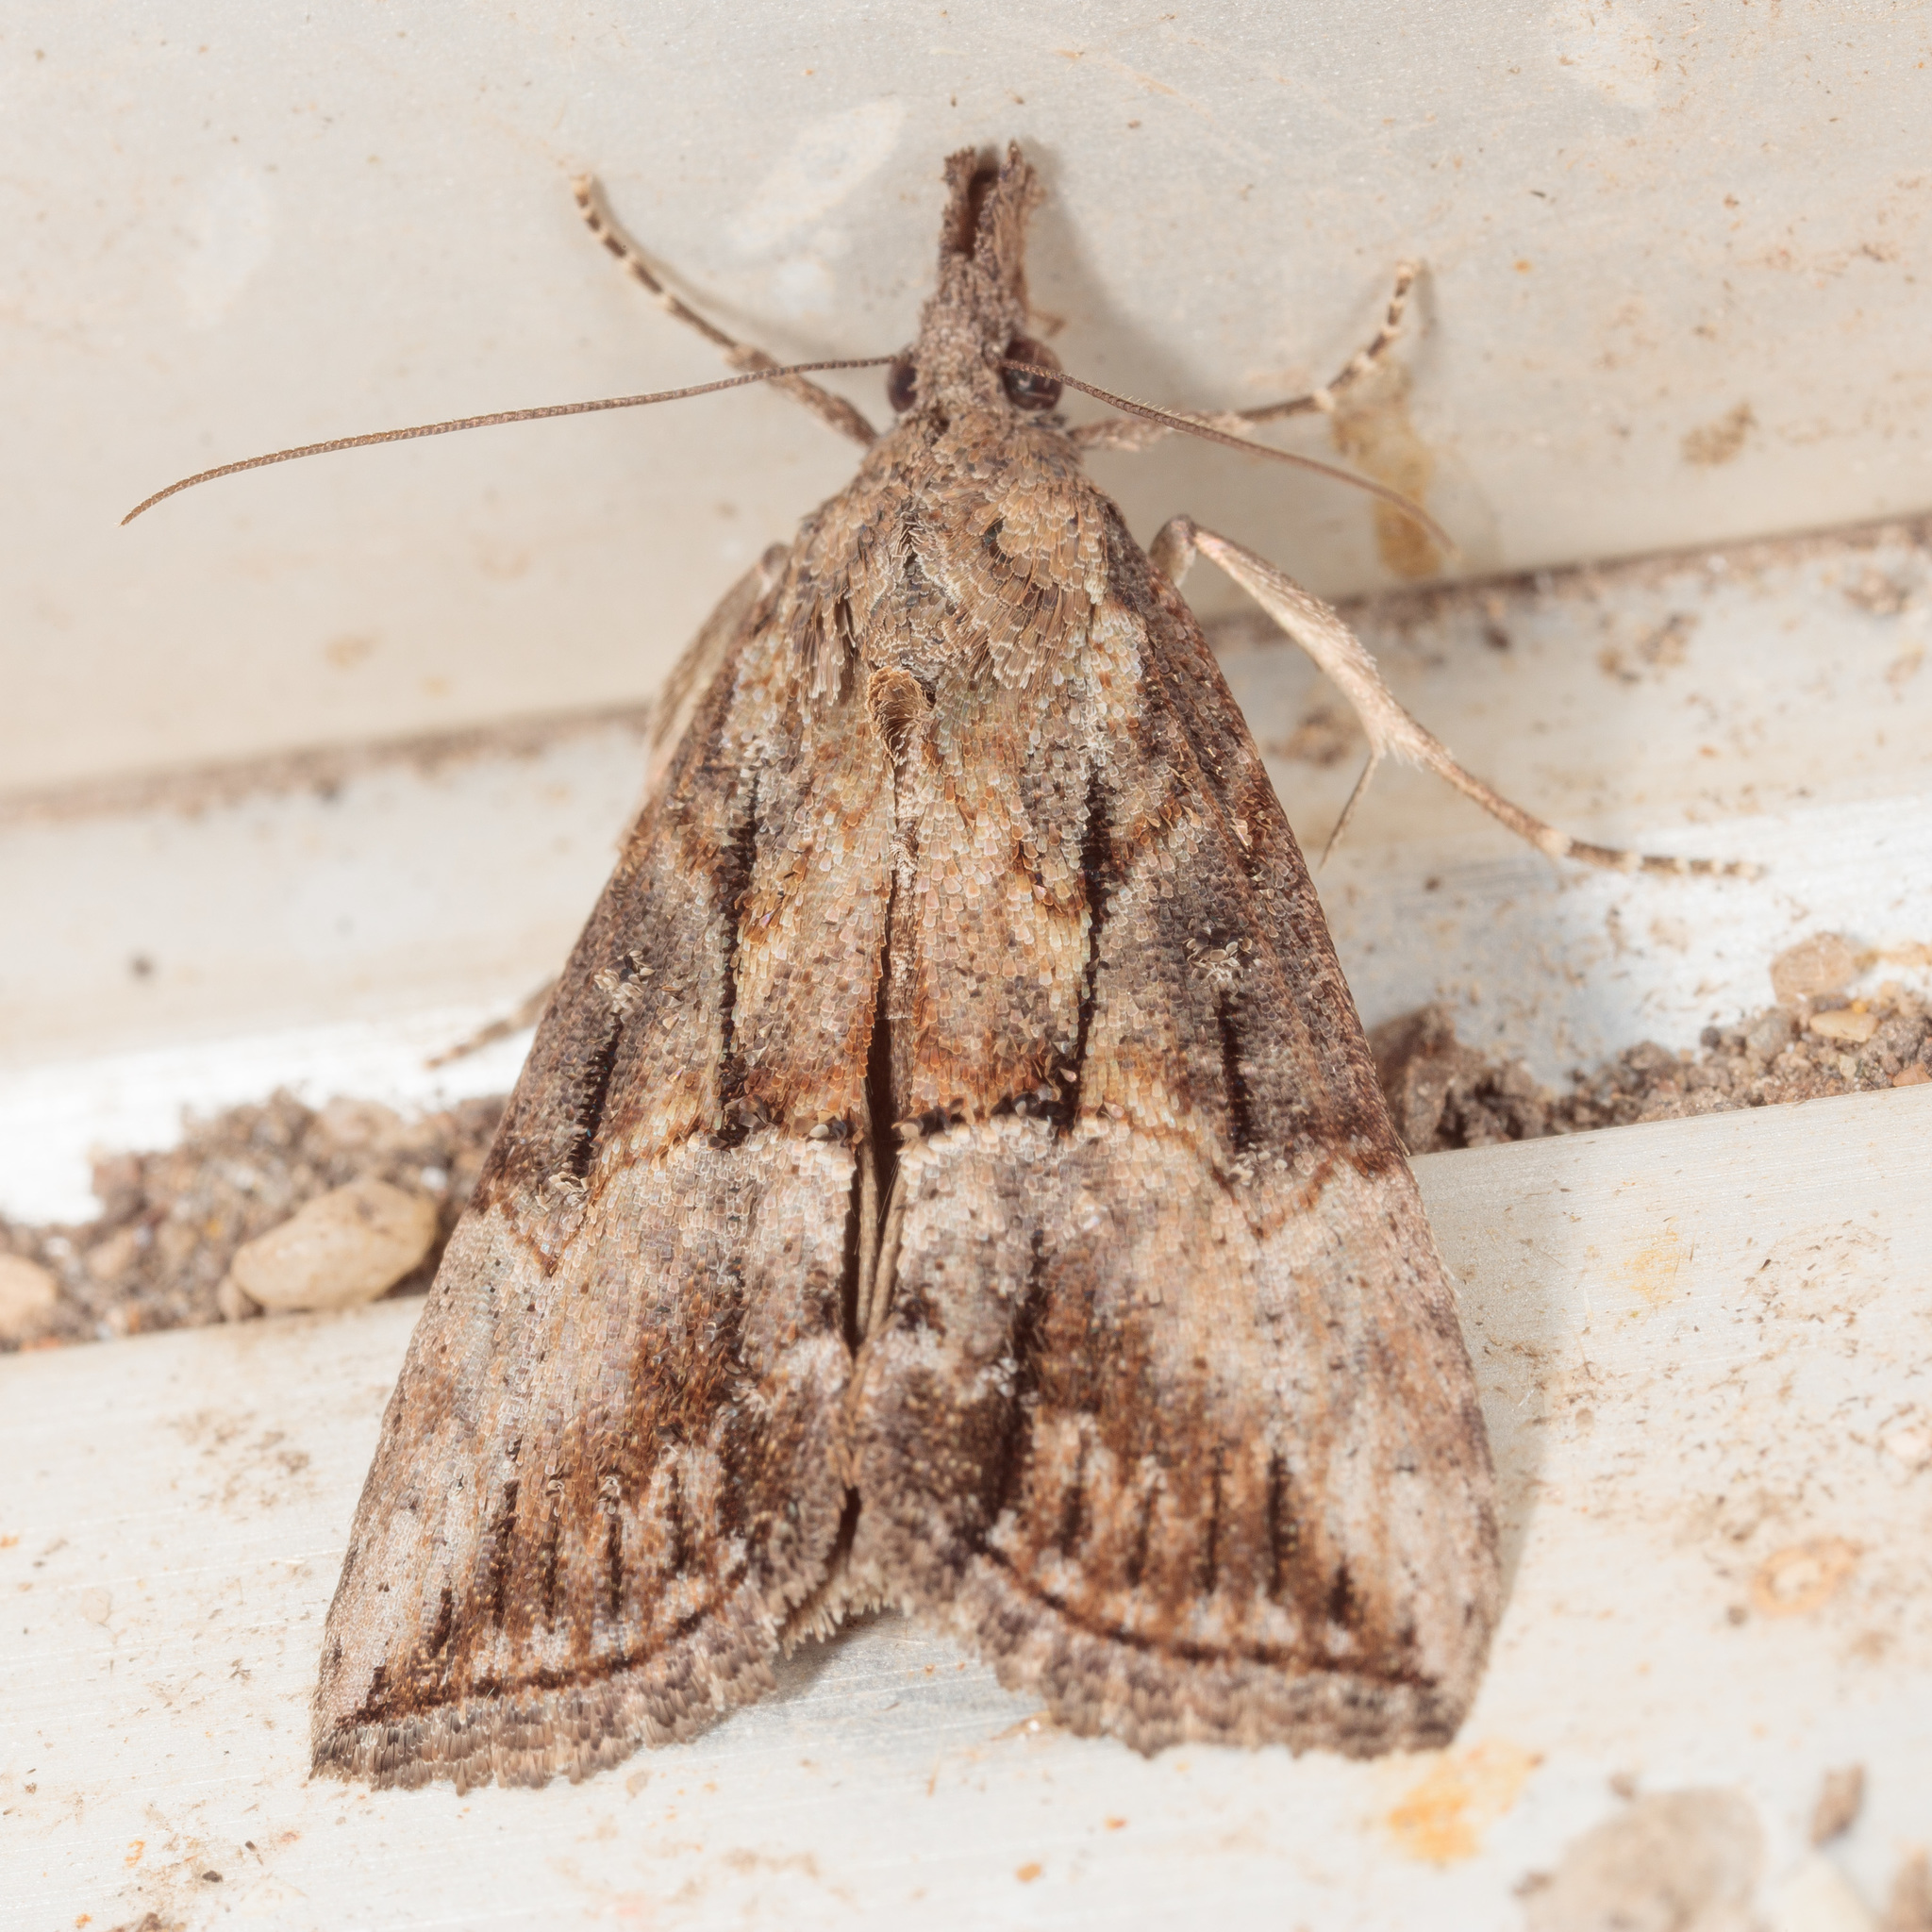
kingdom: Animalia
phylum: Arthropoda
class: Insecta
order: Lepidoptera
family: Erebidae
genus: Hypena
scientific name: Hypena scabra
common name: Green cloverworm
